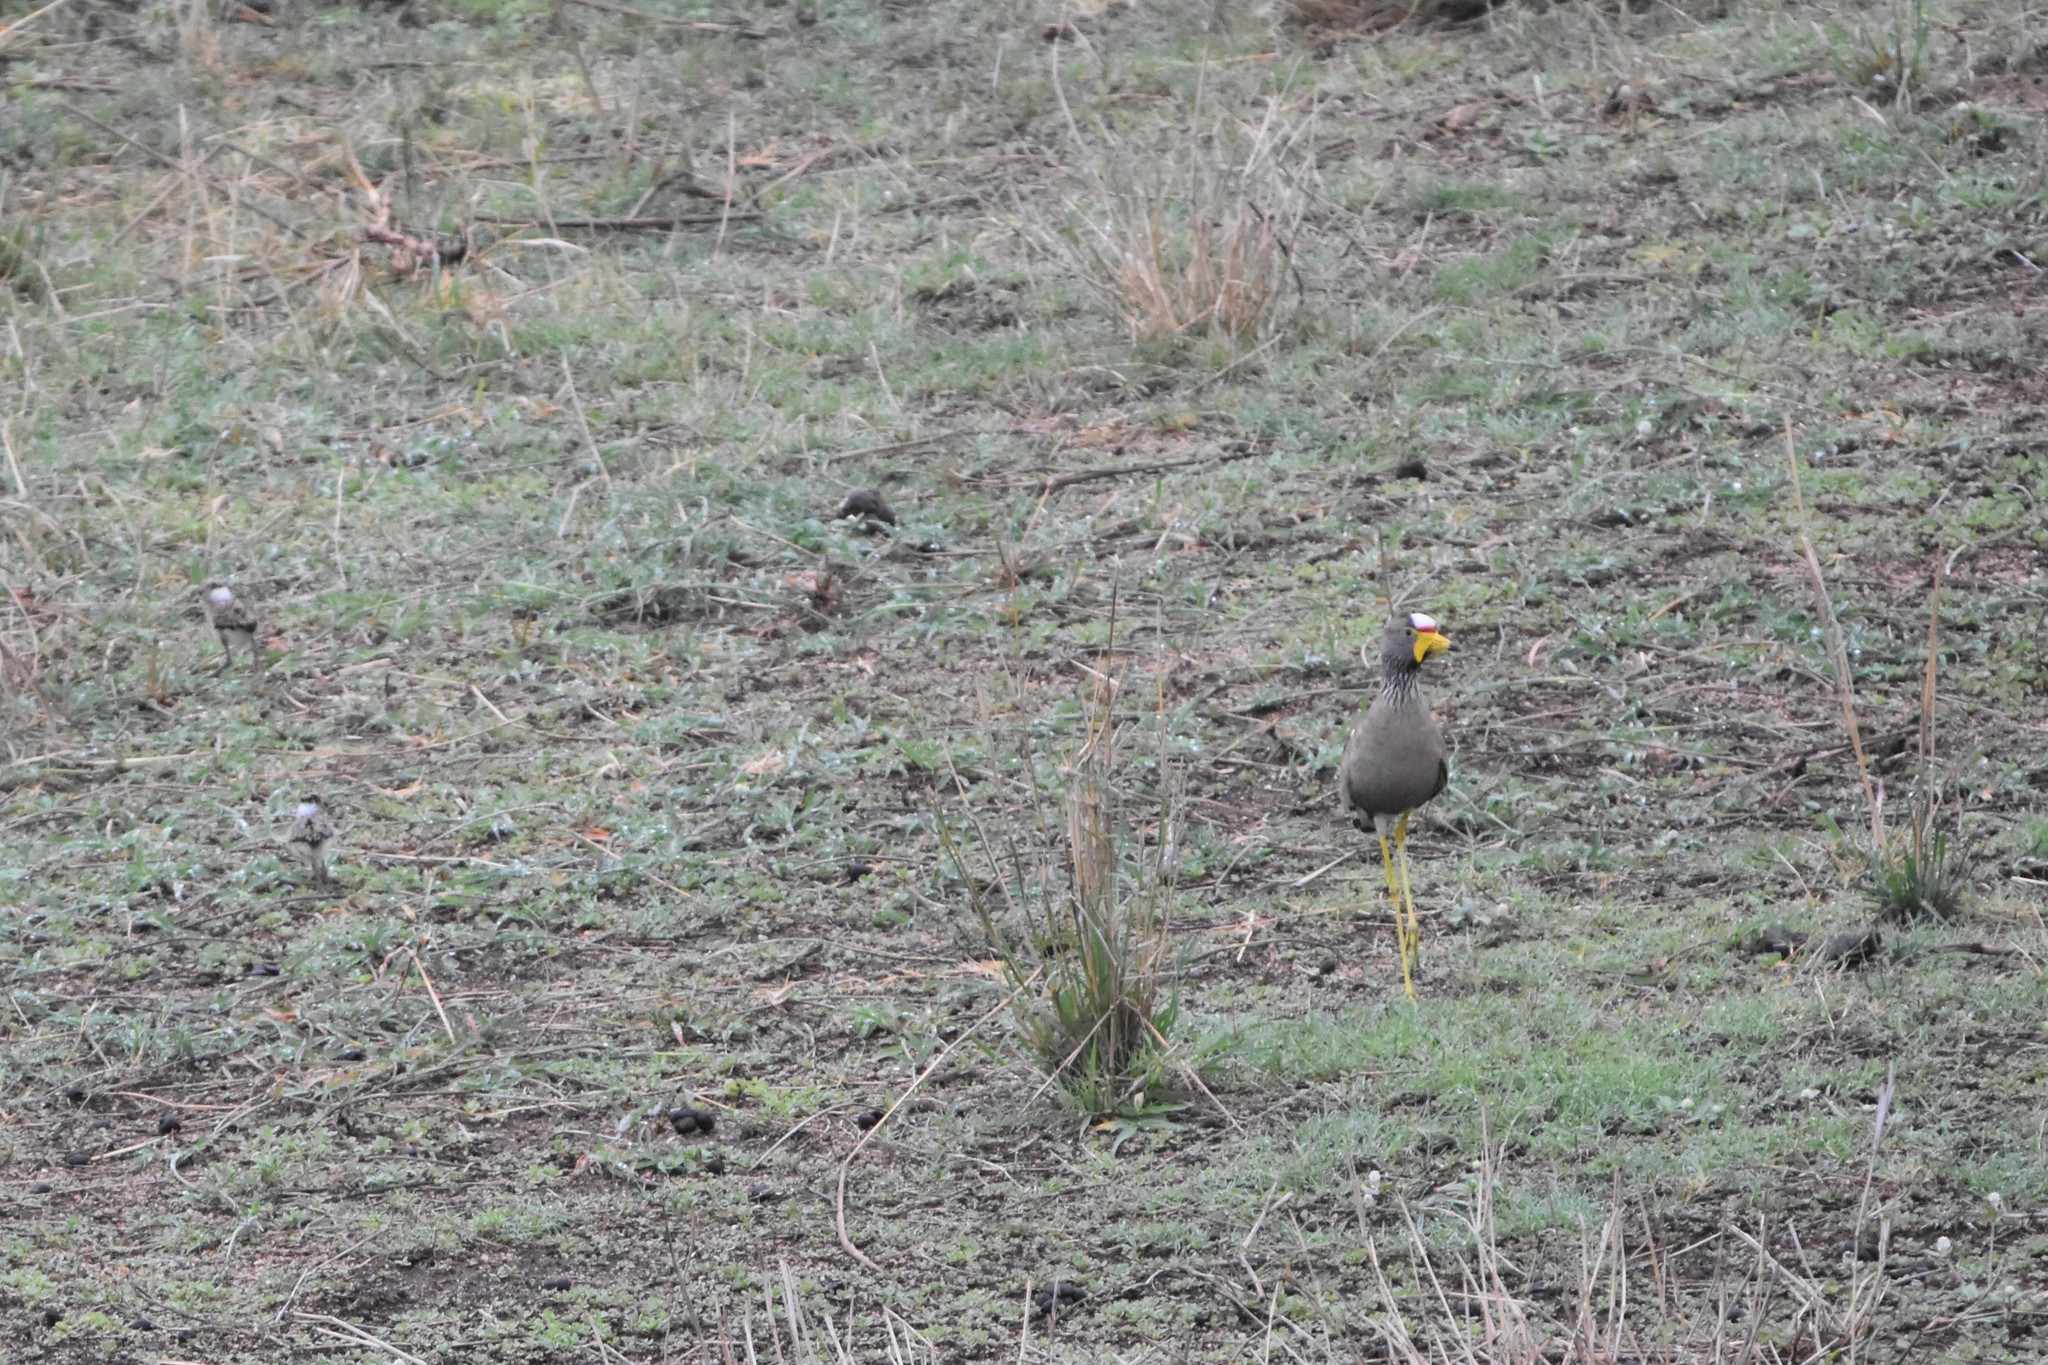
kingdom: Animalia
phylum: Chordata
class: Aves
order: Charadriiformes
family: Charadriidae
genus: Vanellus
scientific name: Vanellus senegallus
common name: African wattled lapwing
